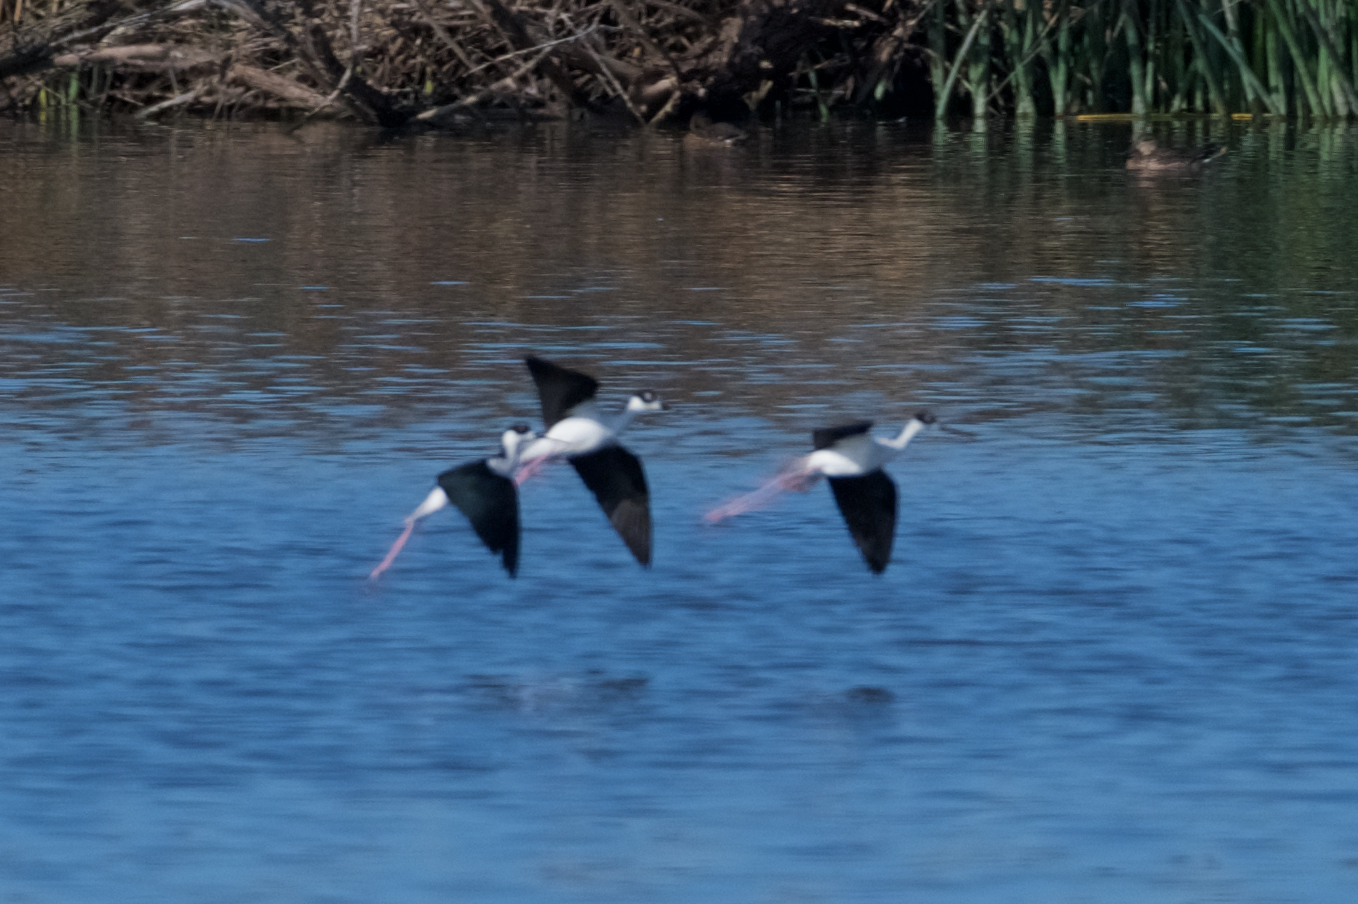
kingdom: Animalia
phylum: Chordata
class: Aves
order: Charadriiformes
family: Recurvirostridae
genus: Himantopus
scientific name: Himantopus mexicanus
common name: Black-necked stilt
